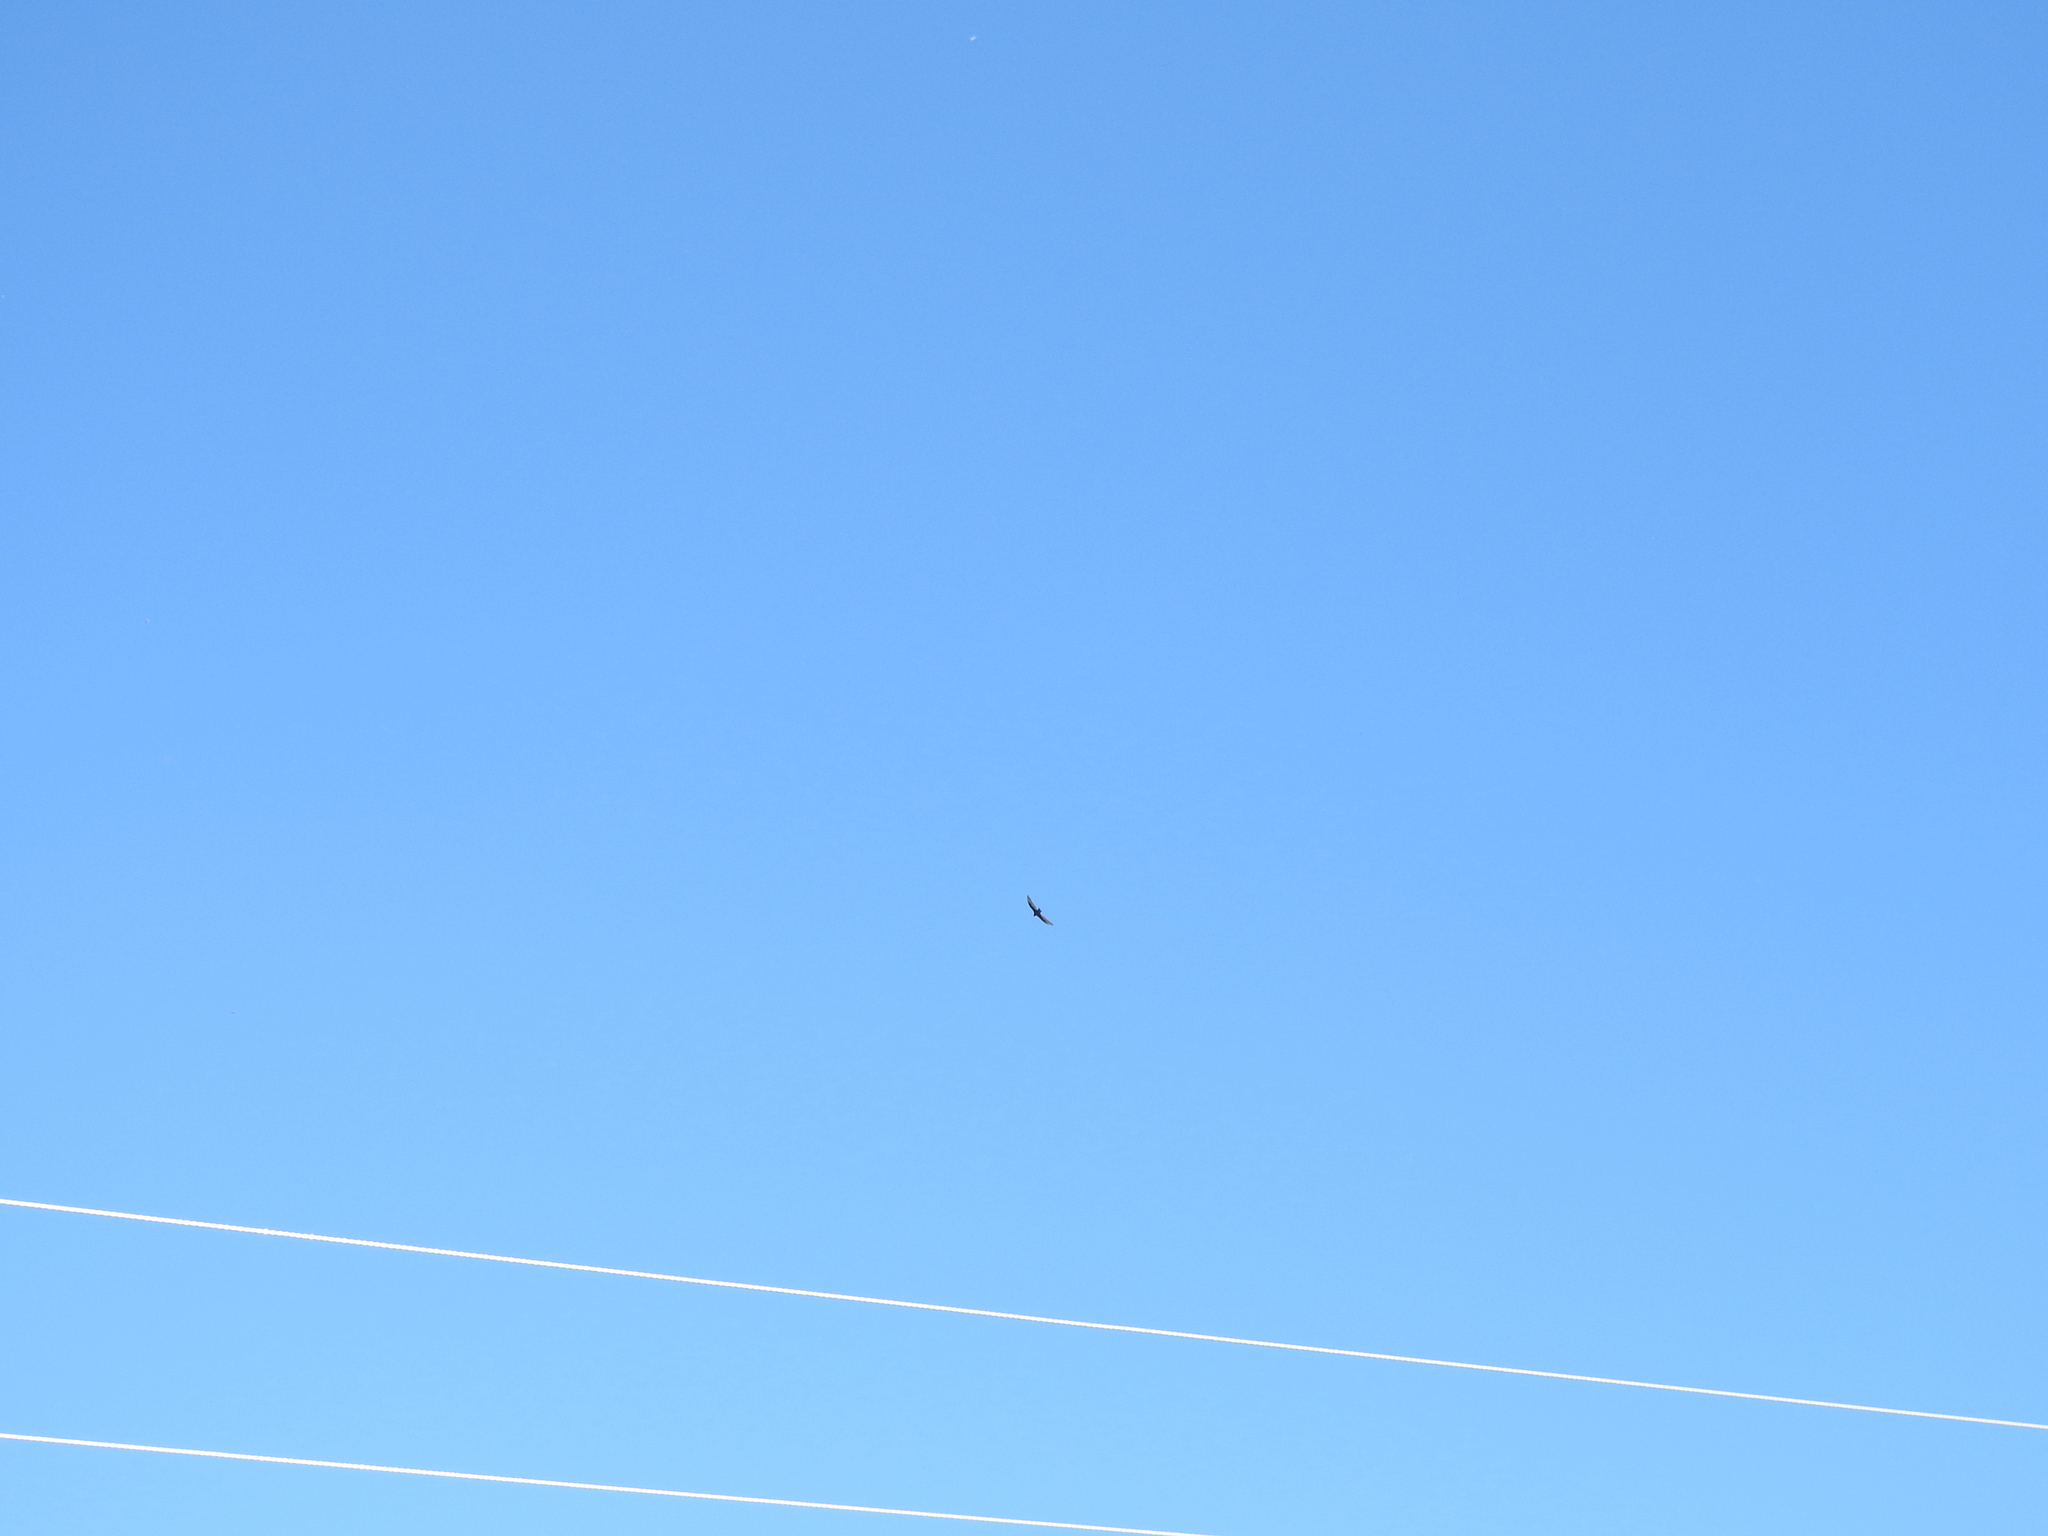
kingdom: Animalia
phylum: Chordata
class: Aves
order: Accipitriformes
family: Cathartidae
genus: Cathartes
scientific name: Cathartes aura
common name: Turkey vulture
